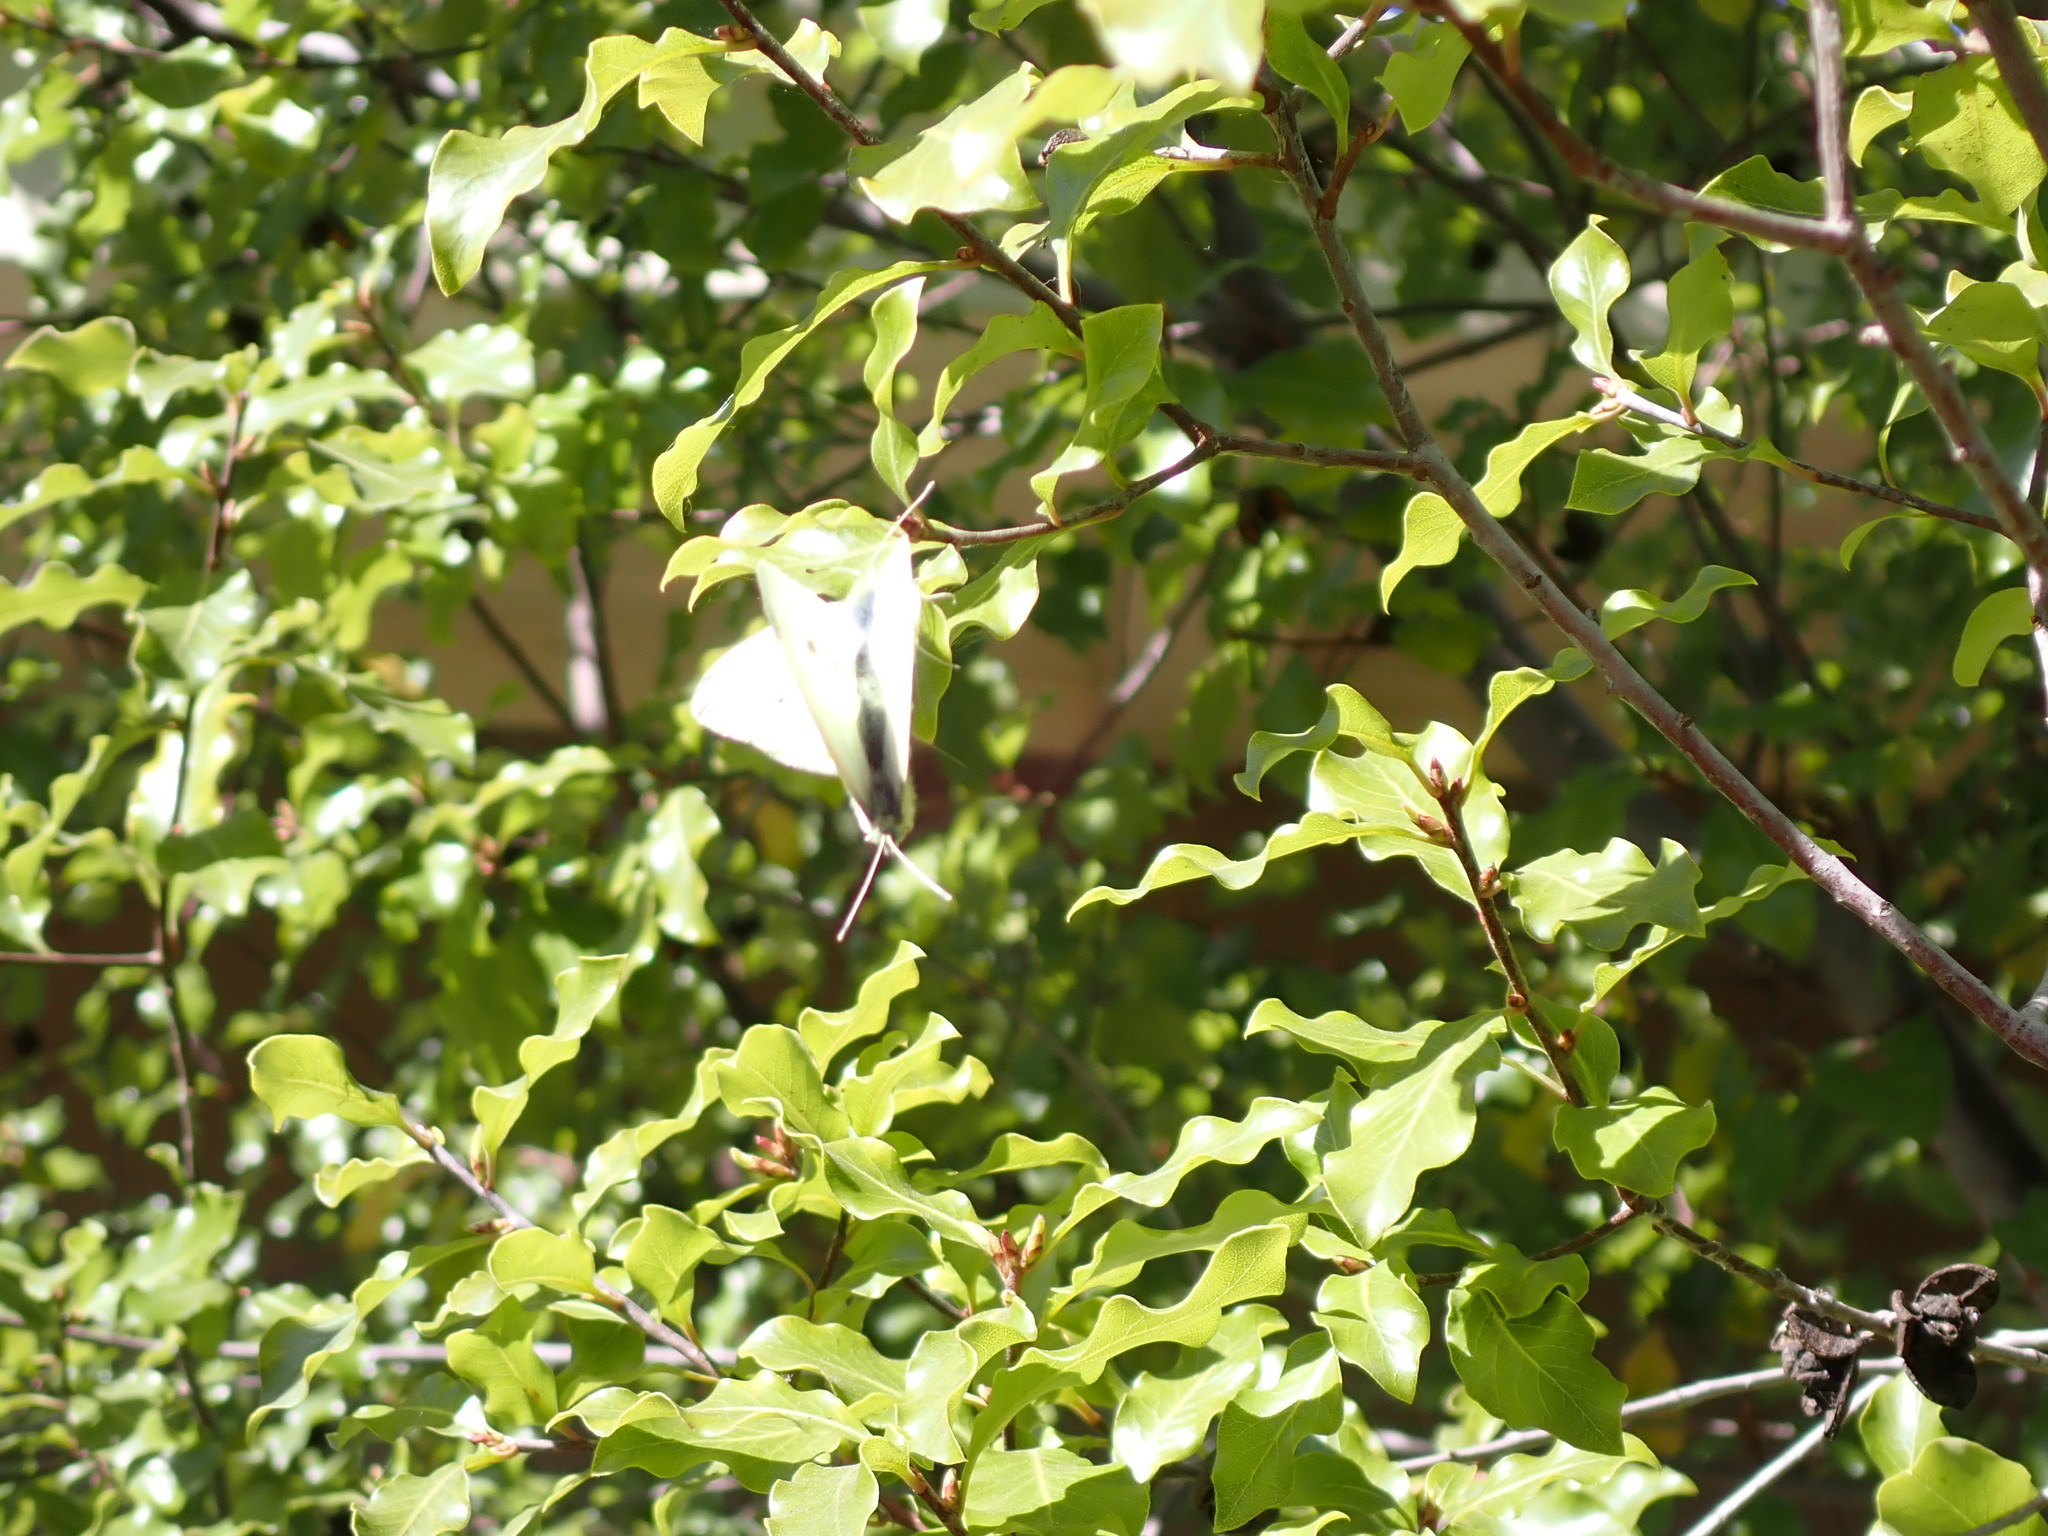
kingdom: Animalia
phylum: Arthropoda
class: Insecta
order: Lepidoptera
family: Pieridae
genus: Pieris
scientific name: Pieris rapae
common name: Small white
